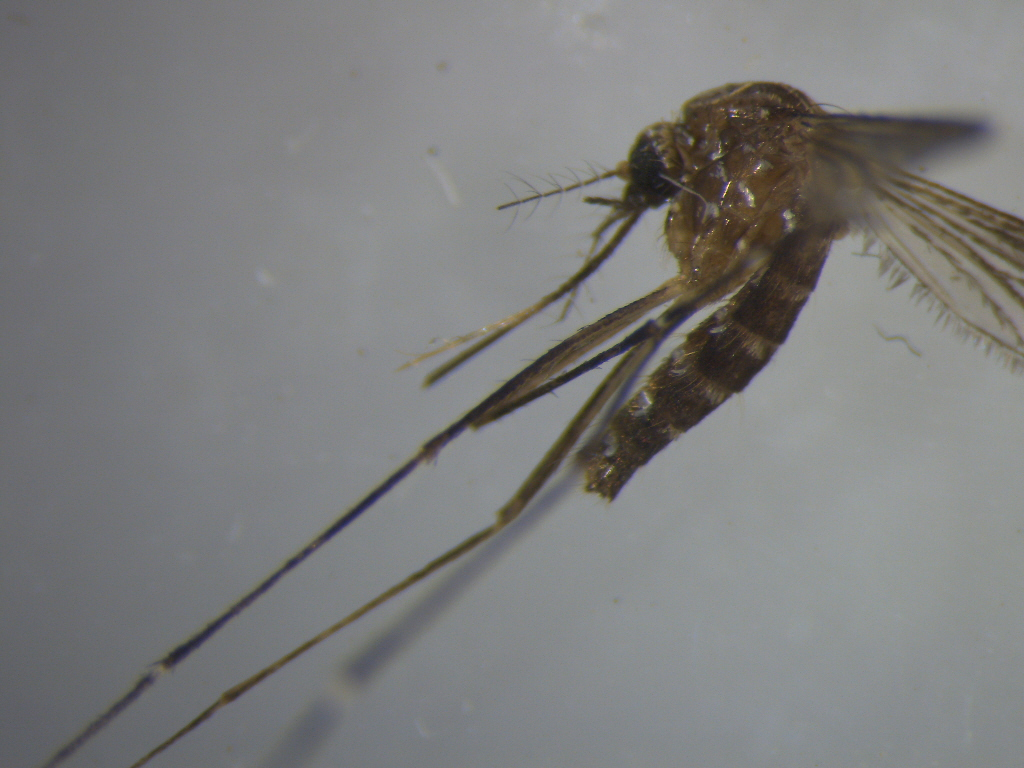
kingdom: Animalia
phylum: Arthropoda
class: Insecta
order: Diptera
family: Culicidae
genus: Aedes
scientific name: Aedes notoscriptus
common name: Australian backyard mosquito
